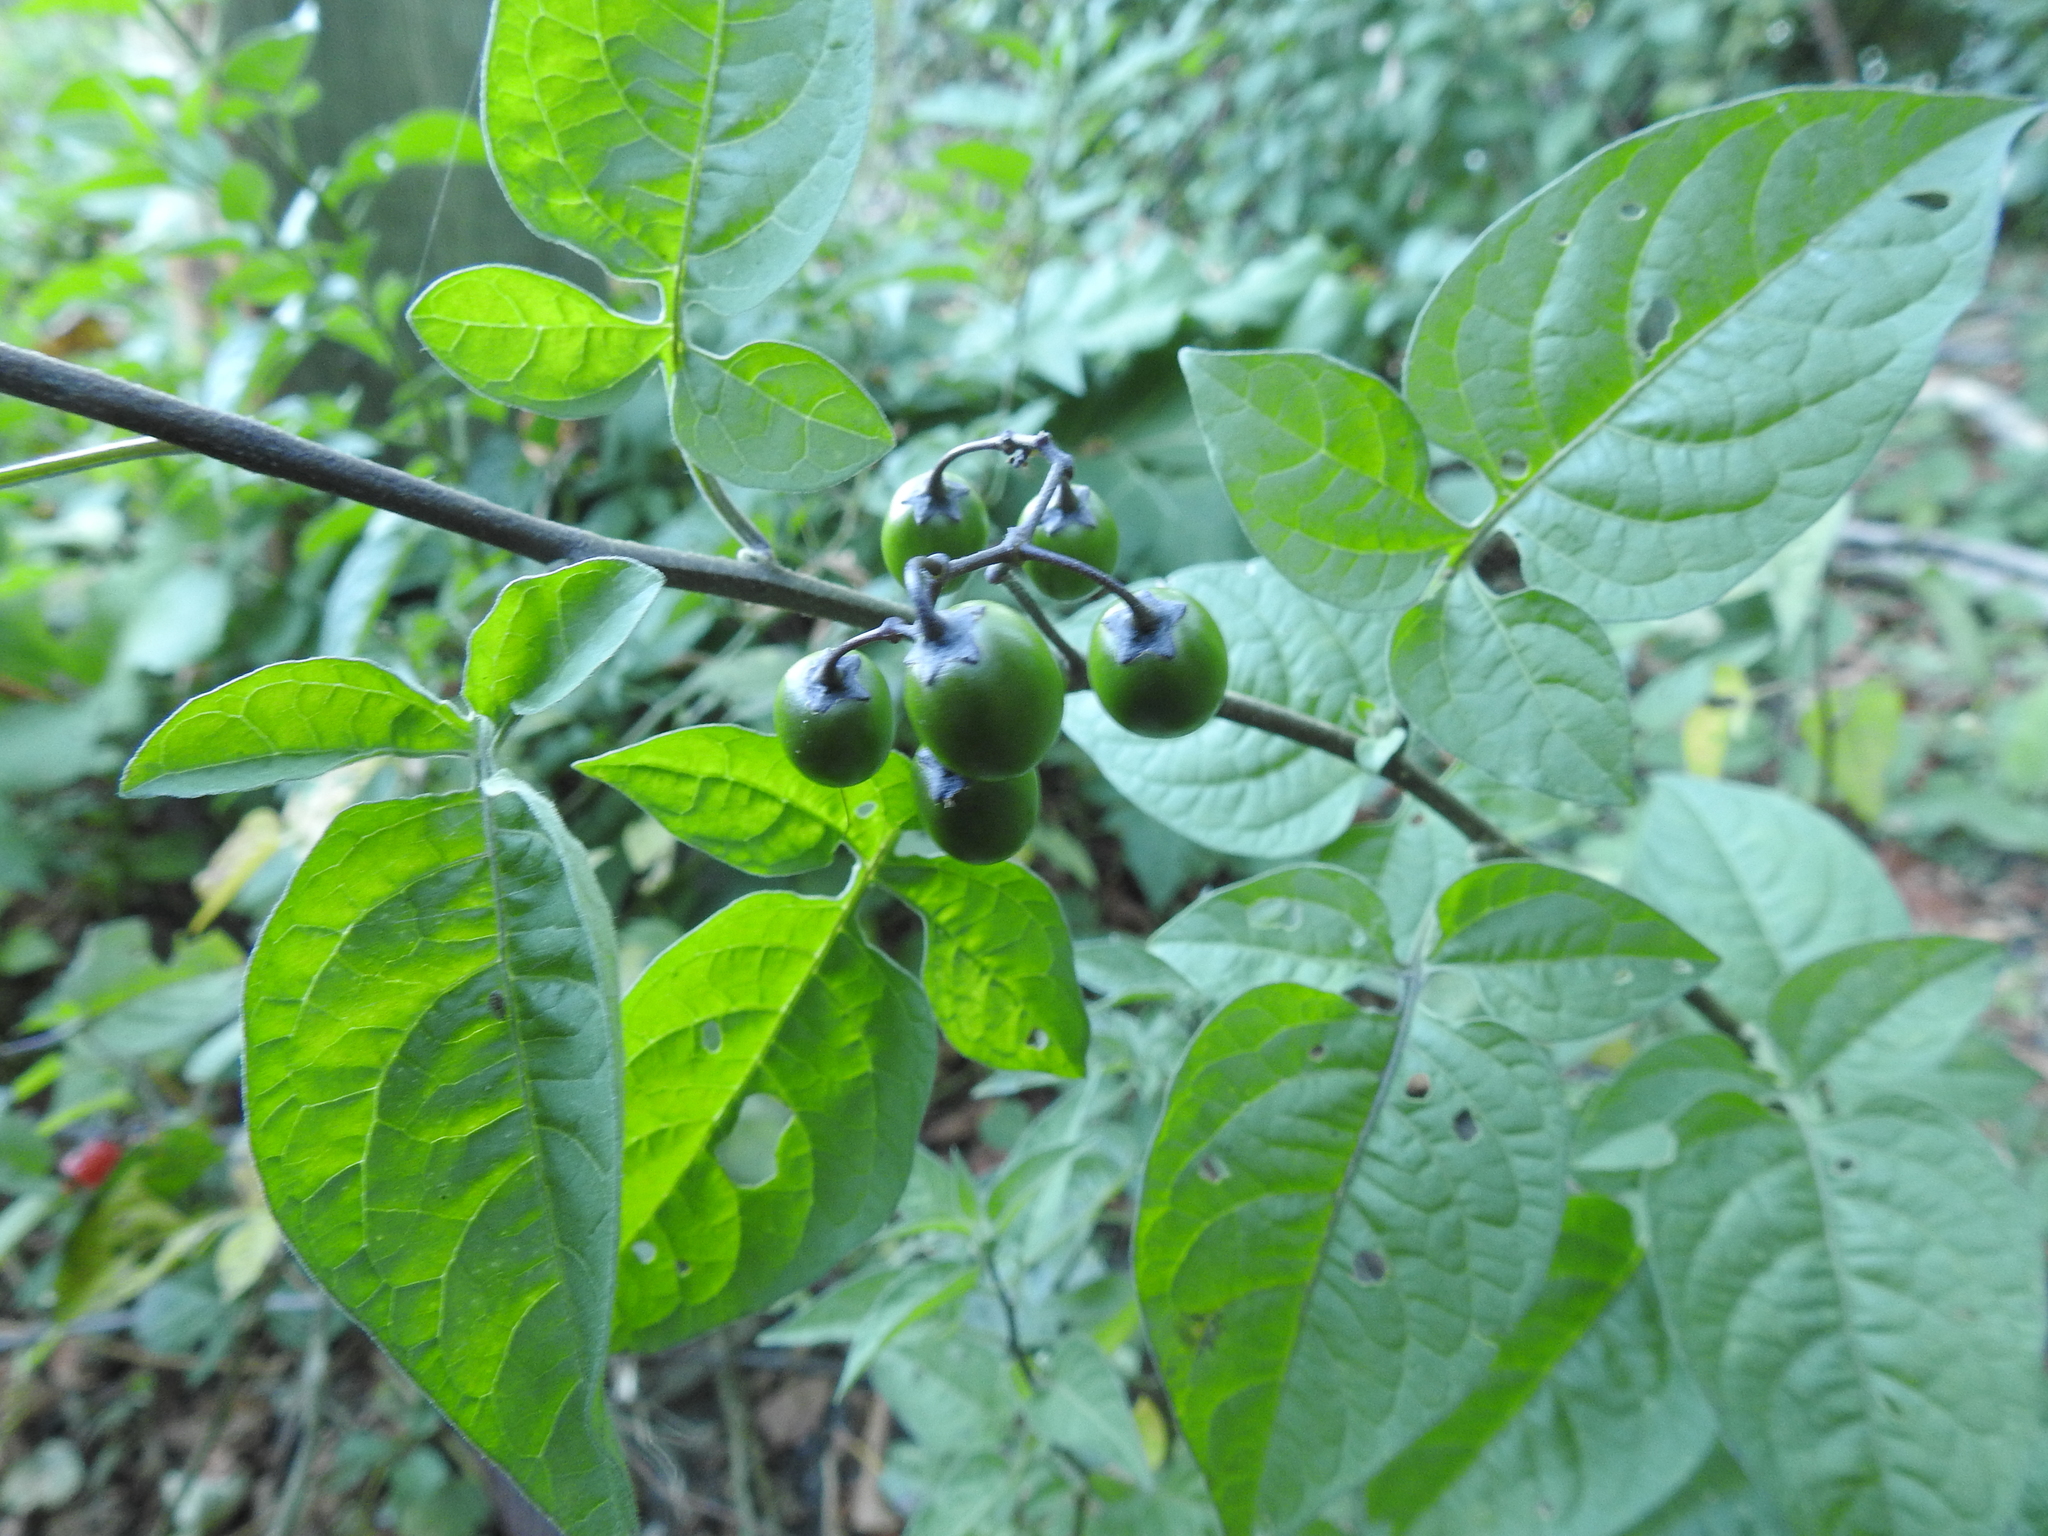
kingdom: Plantae
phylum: Tracheophyta
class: Magnoliopsida
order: Solanales
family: Solanaceae
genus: Solanum
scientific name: Solanum dulcamara
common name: Climbing nightshade
